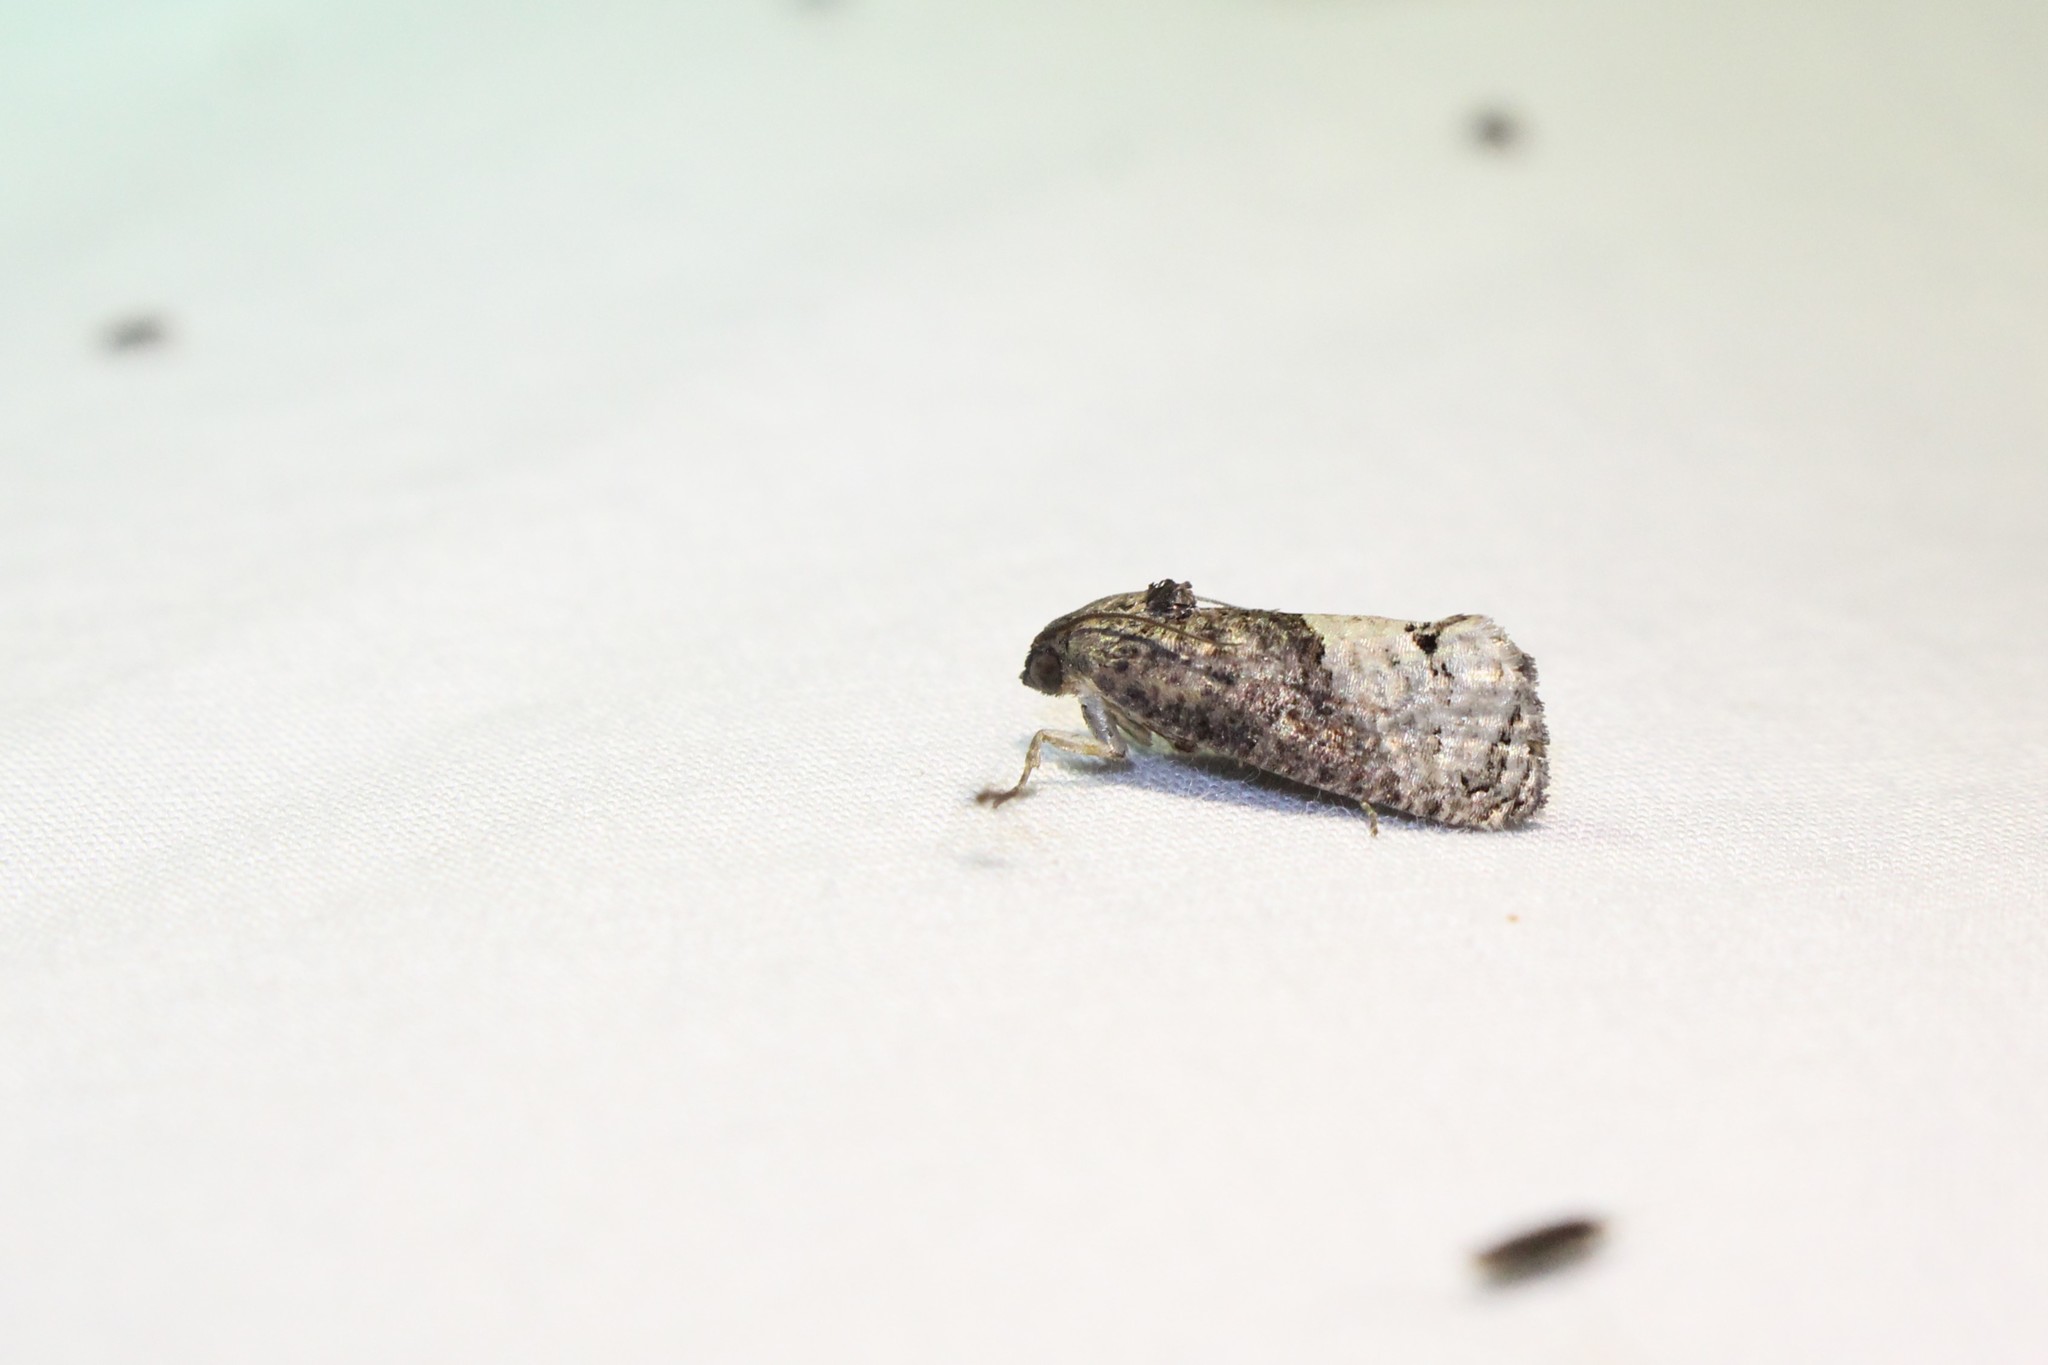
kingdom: Animalia
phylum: Arthropoda
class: Insecta
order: Lepidoptera
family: Tortricidae
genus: Ecdytolopha
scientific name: Ecdytolopha insiticiana
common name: Locust twig borer moth
